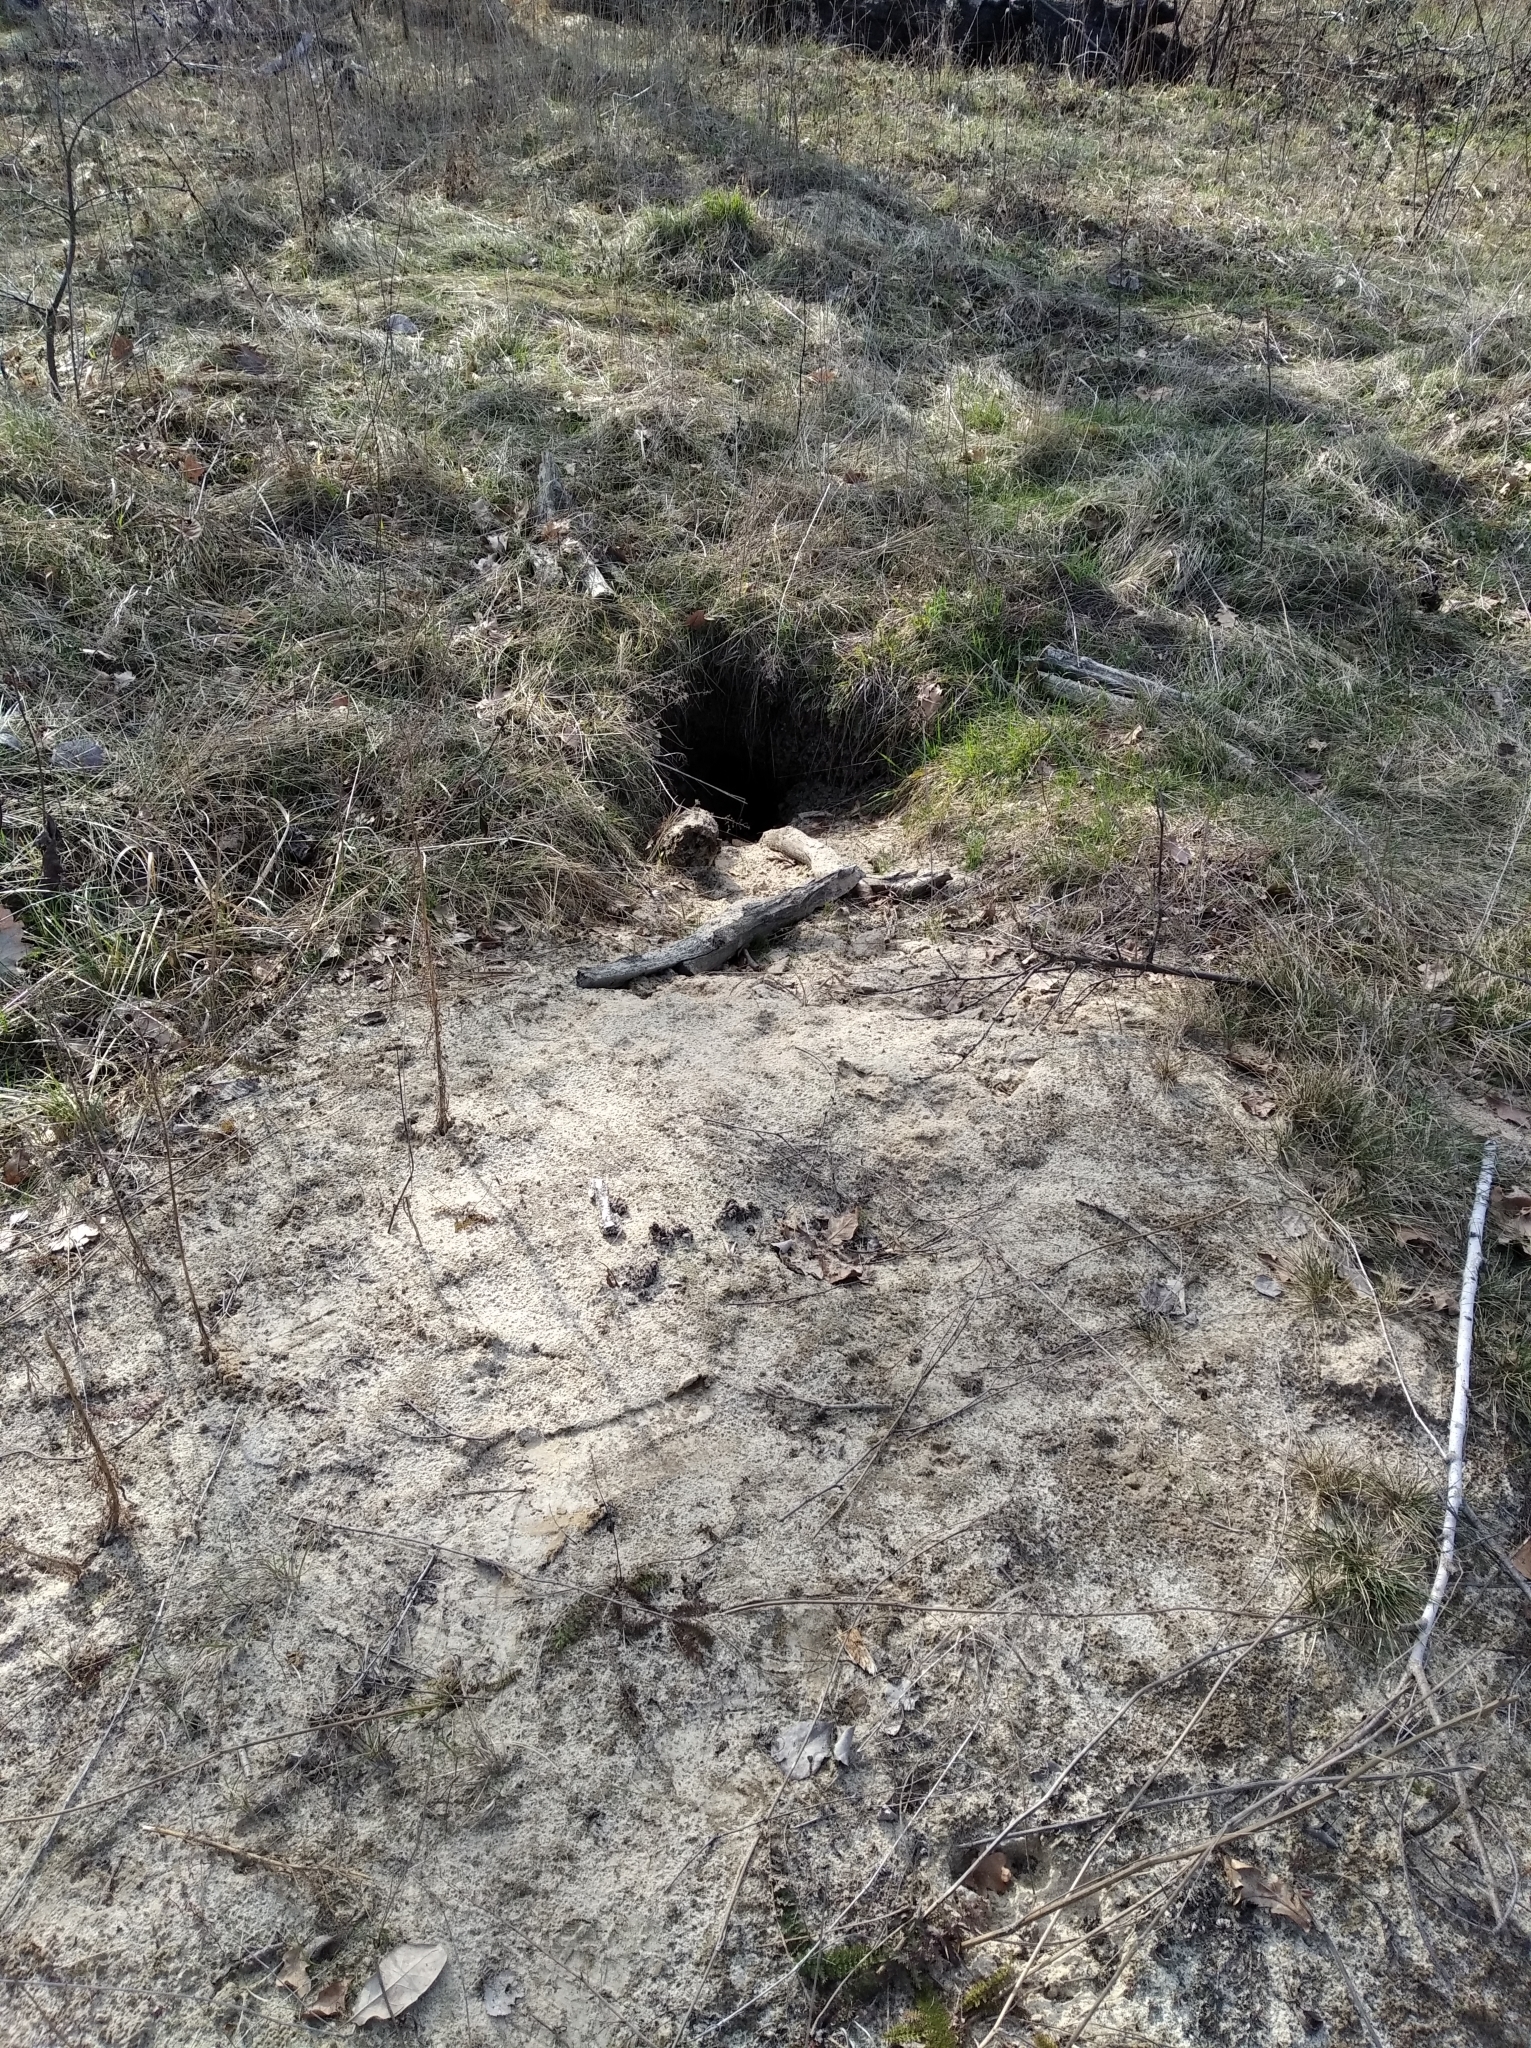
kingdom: Animalia
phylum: Chordata
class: Mammalia
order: Carnivora
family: Canidae
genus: Vulpes
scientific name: Vulpes vulpes
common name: Red fox
